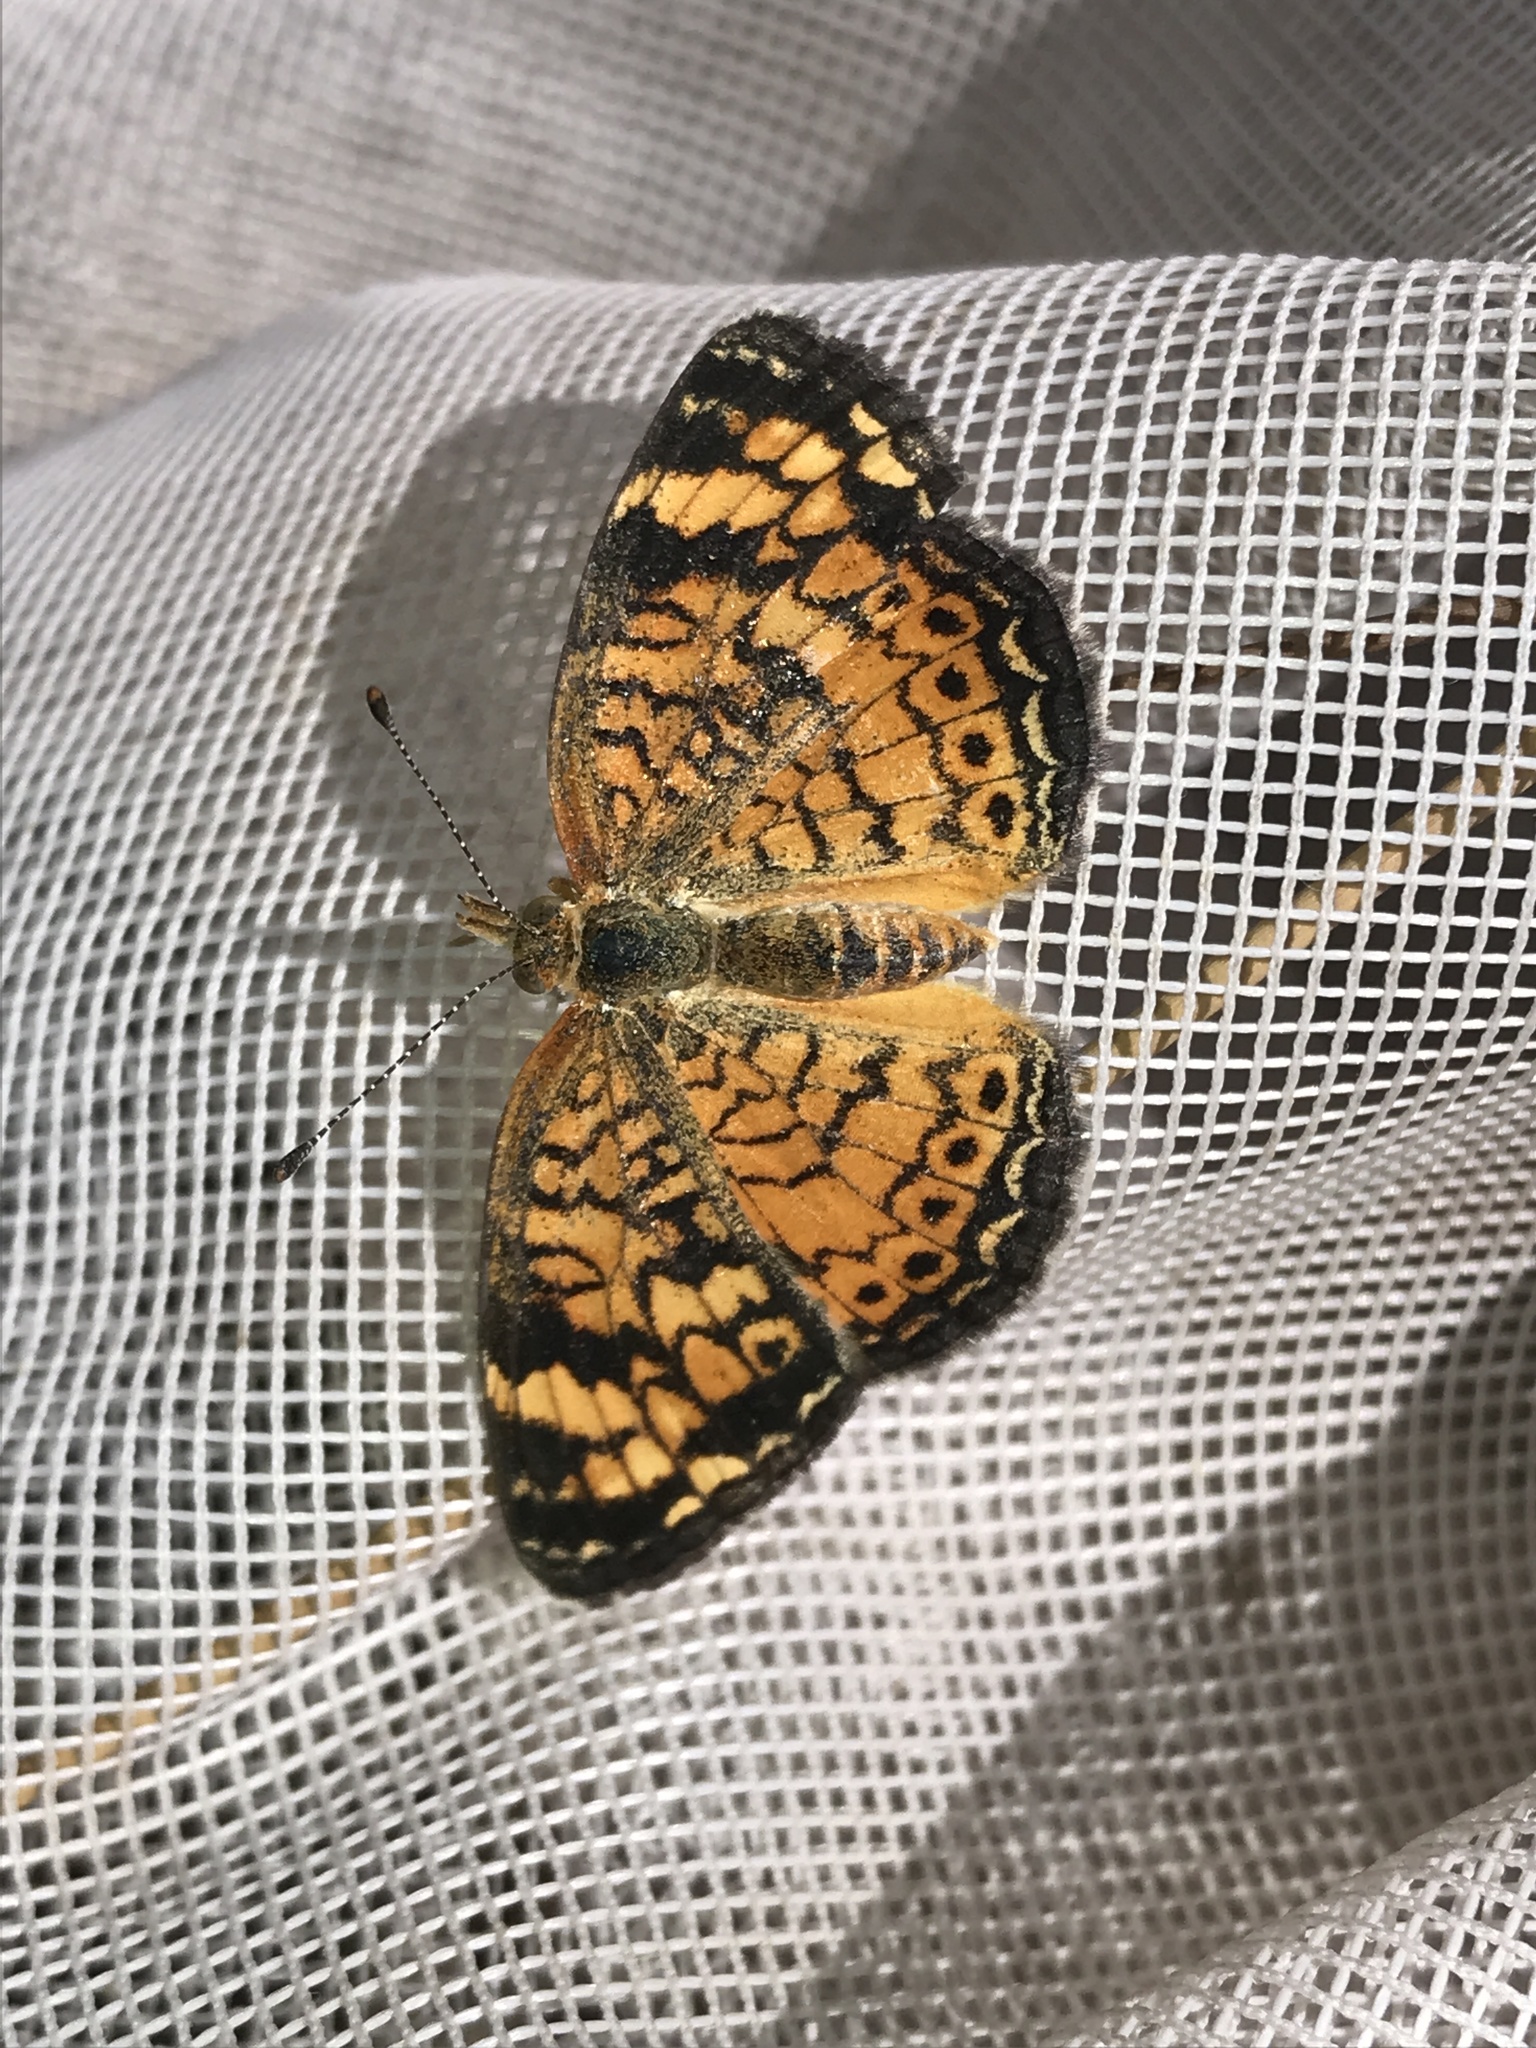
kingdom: Animalia
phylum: Arthropoda
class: Insecta
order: Lepidoptera
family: Nymphalidae
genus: Phyciodes
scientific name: Phyciodes tharos
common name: Pearl crescent
